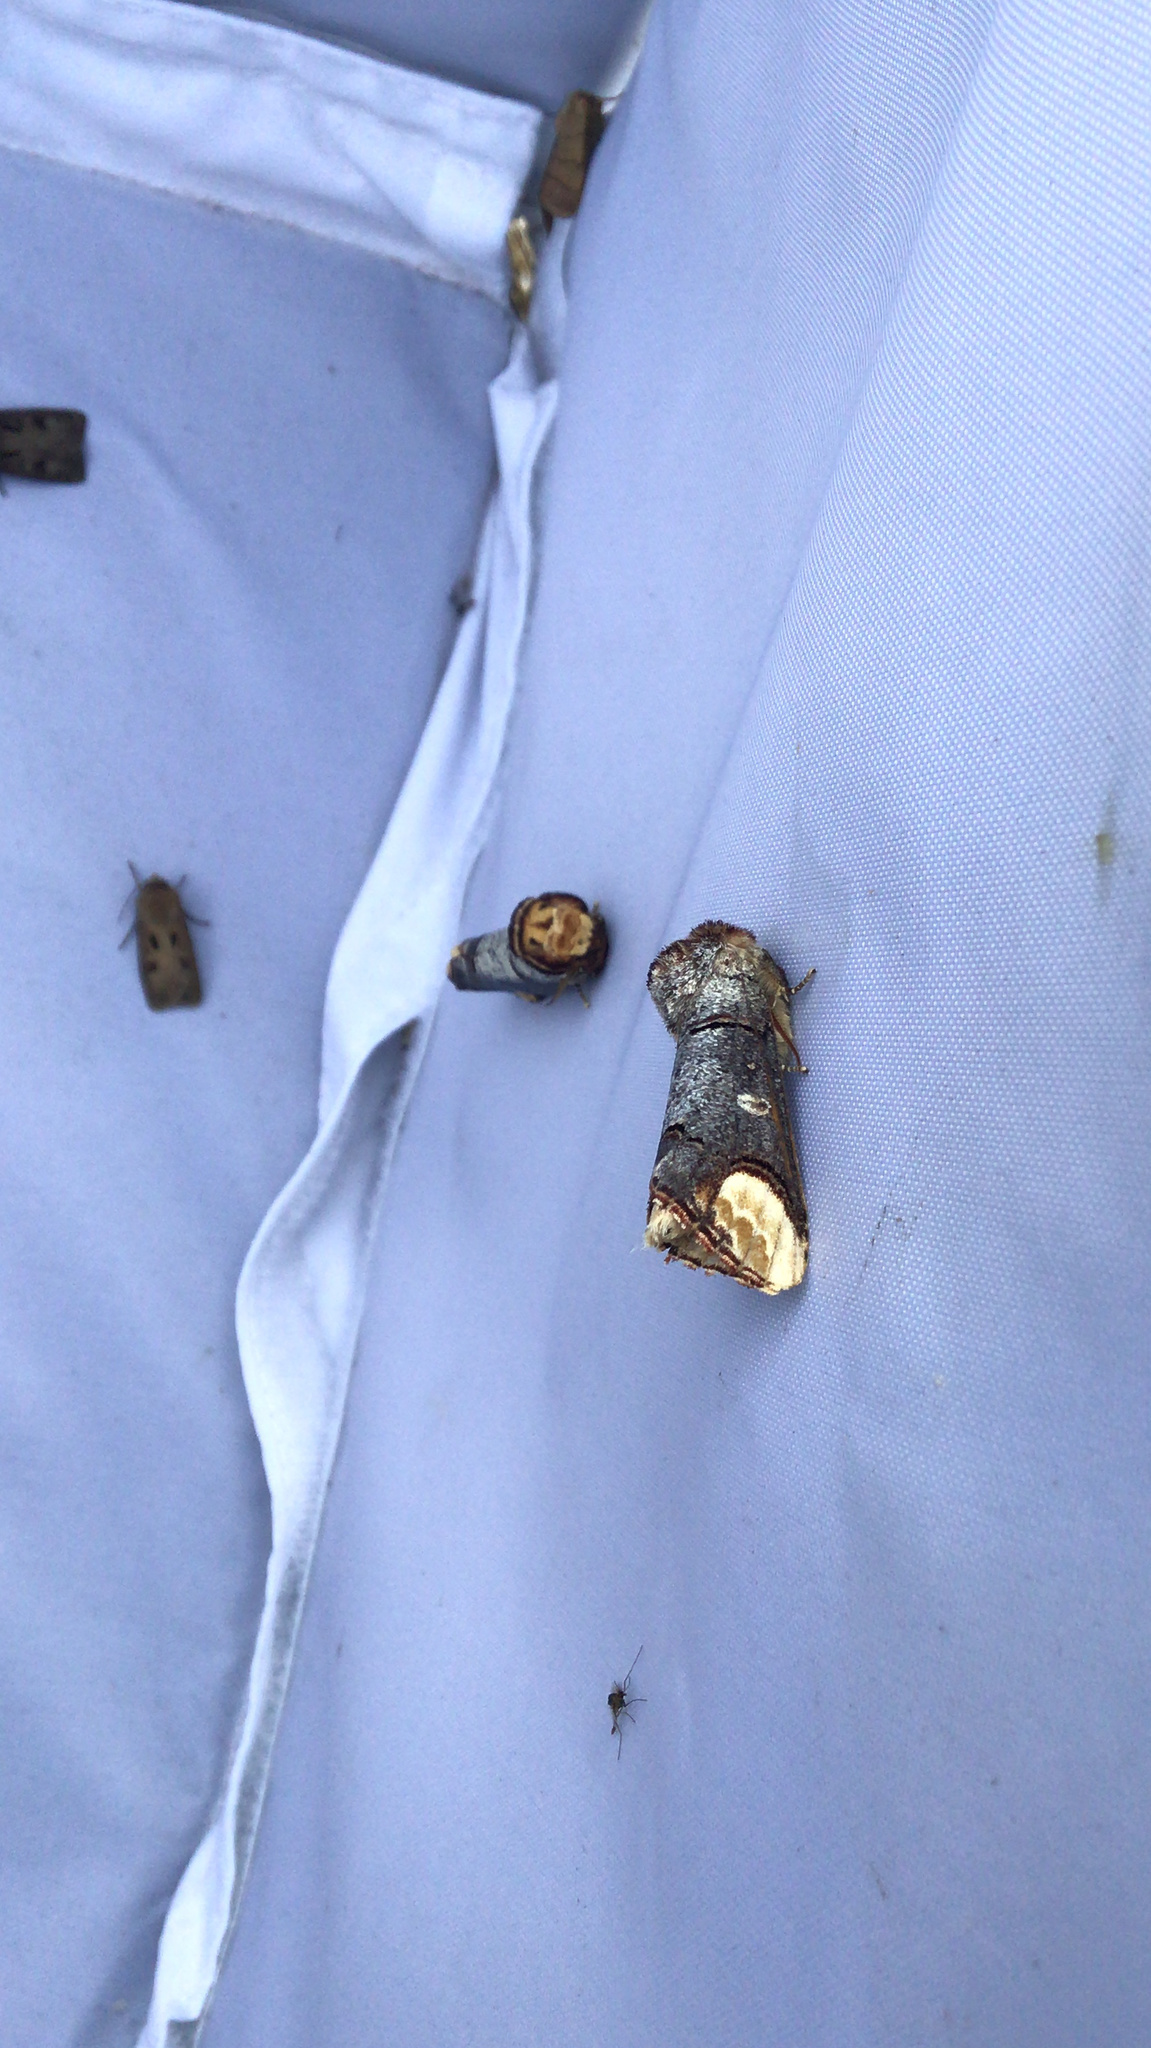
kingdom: Animalia
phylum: Arthropoda
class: Insecta
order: Lepidoptera
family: Notodontidae
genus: Phalera
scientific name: Phalera bucephala
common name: Buff-tip
